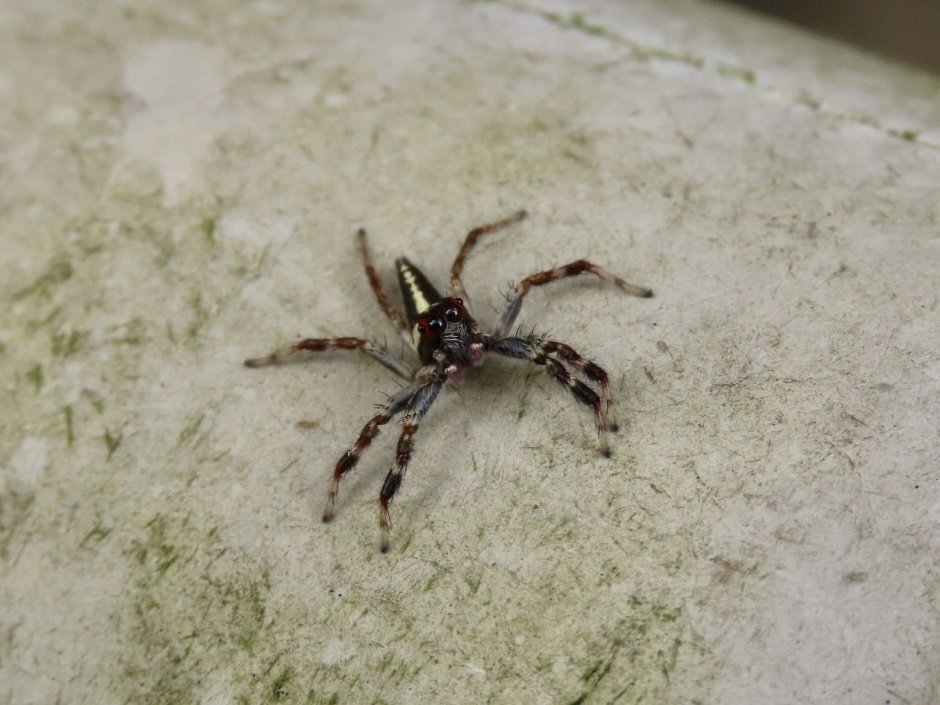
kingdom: Animalia
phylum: Arthropoda
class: Arachnida
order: Araneae
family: Salticidae
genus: Telamonia
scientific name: Telamonia caprina
